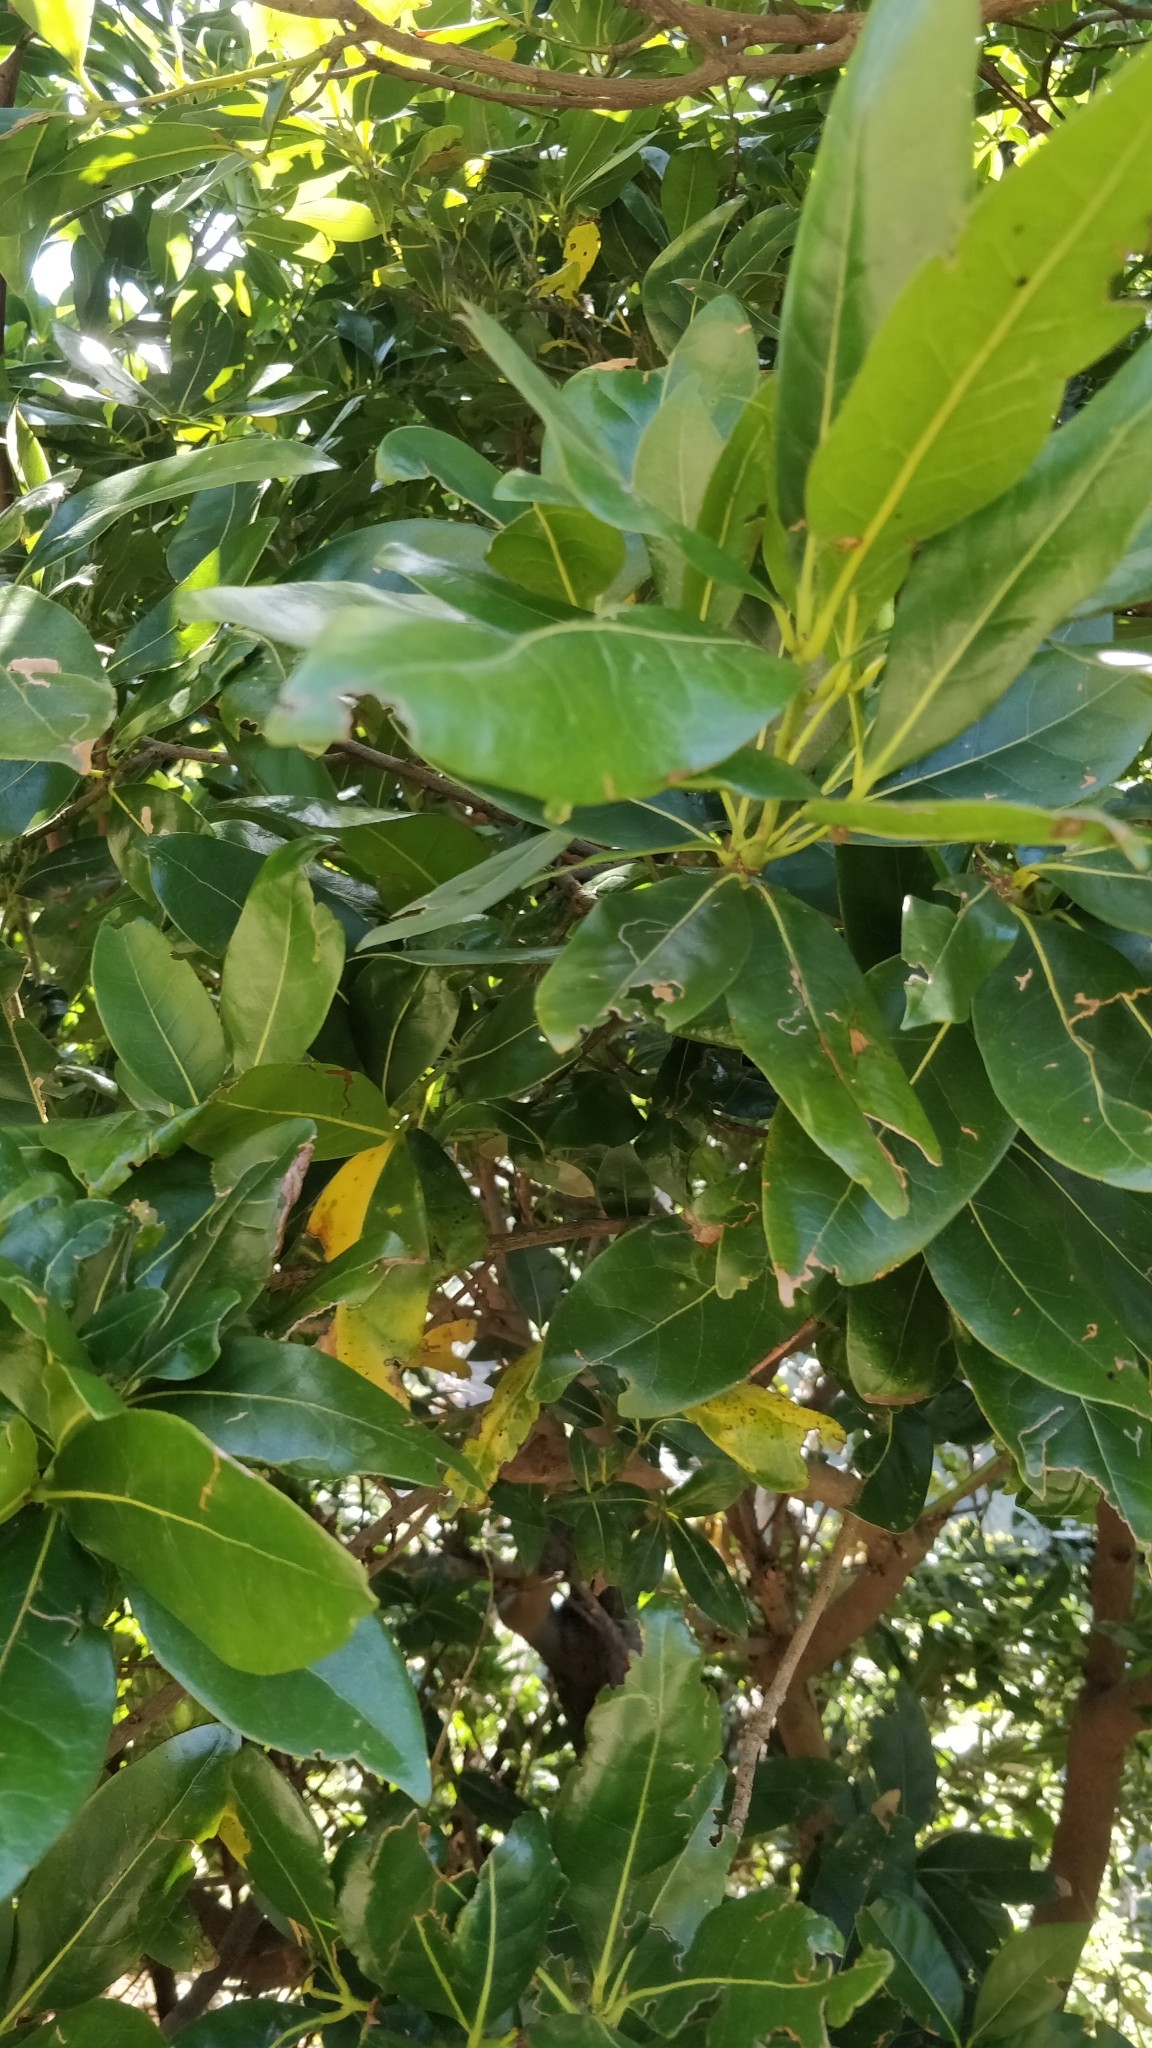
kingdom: Plantae
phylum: Tracheophyta
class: Magnoliopsida
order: Laurales
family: Lauraceae
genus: Apollonias
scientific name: Apollonias barbujana
